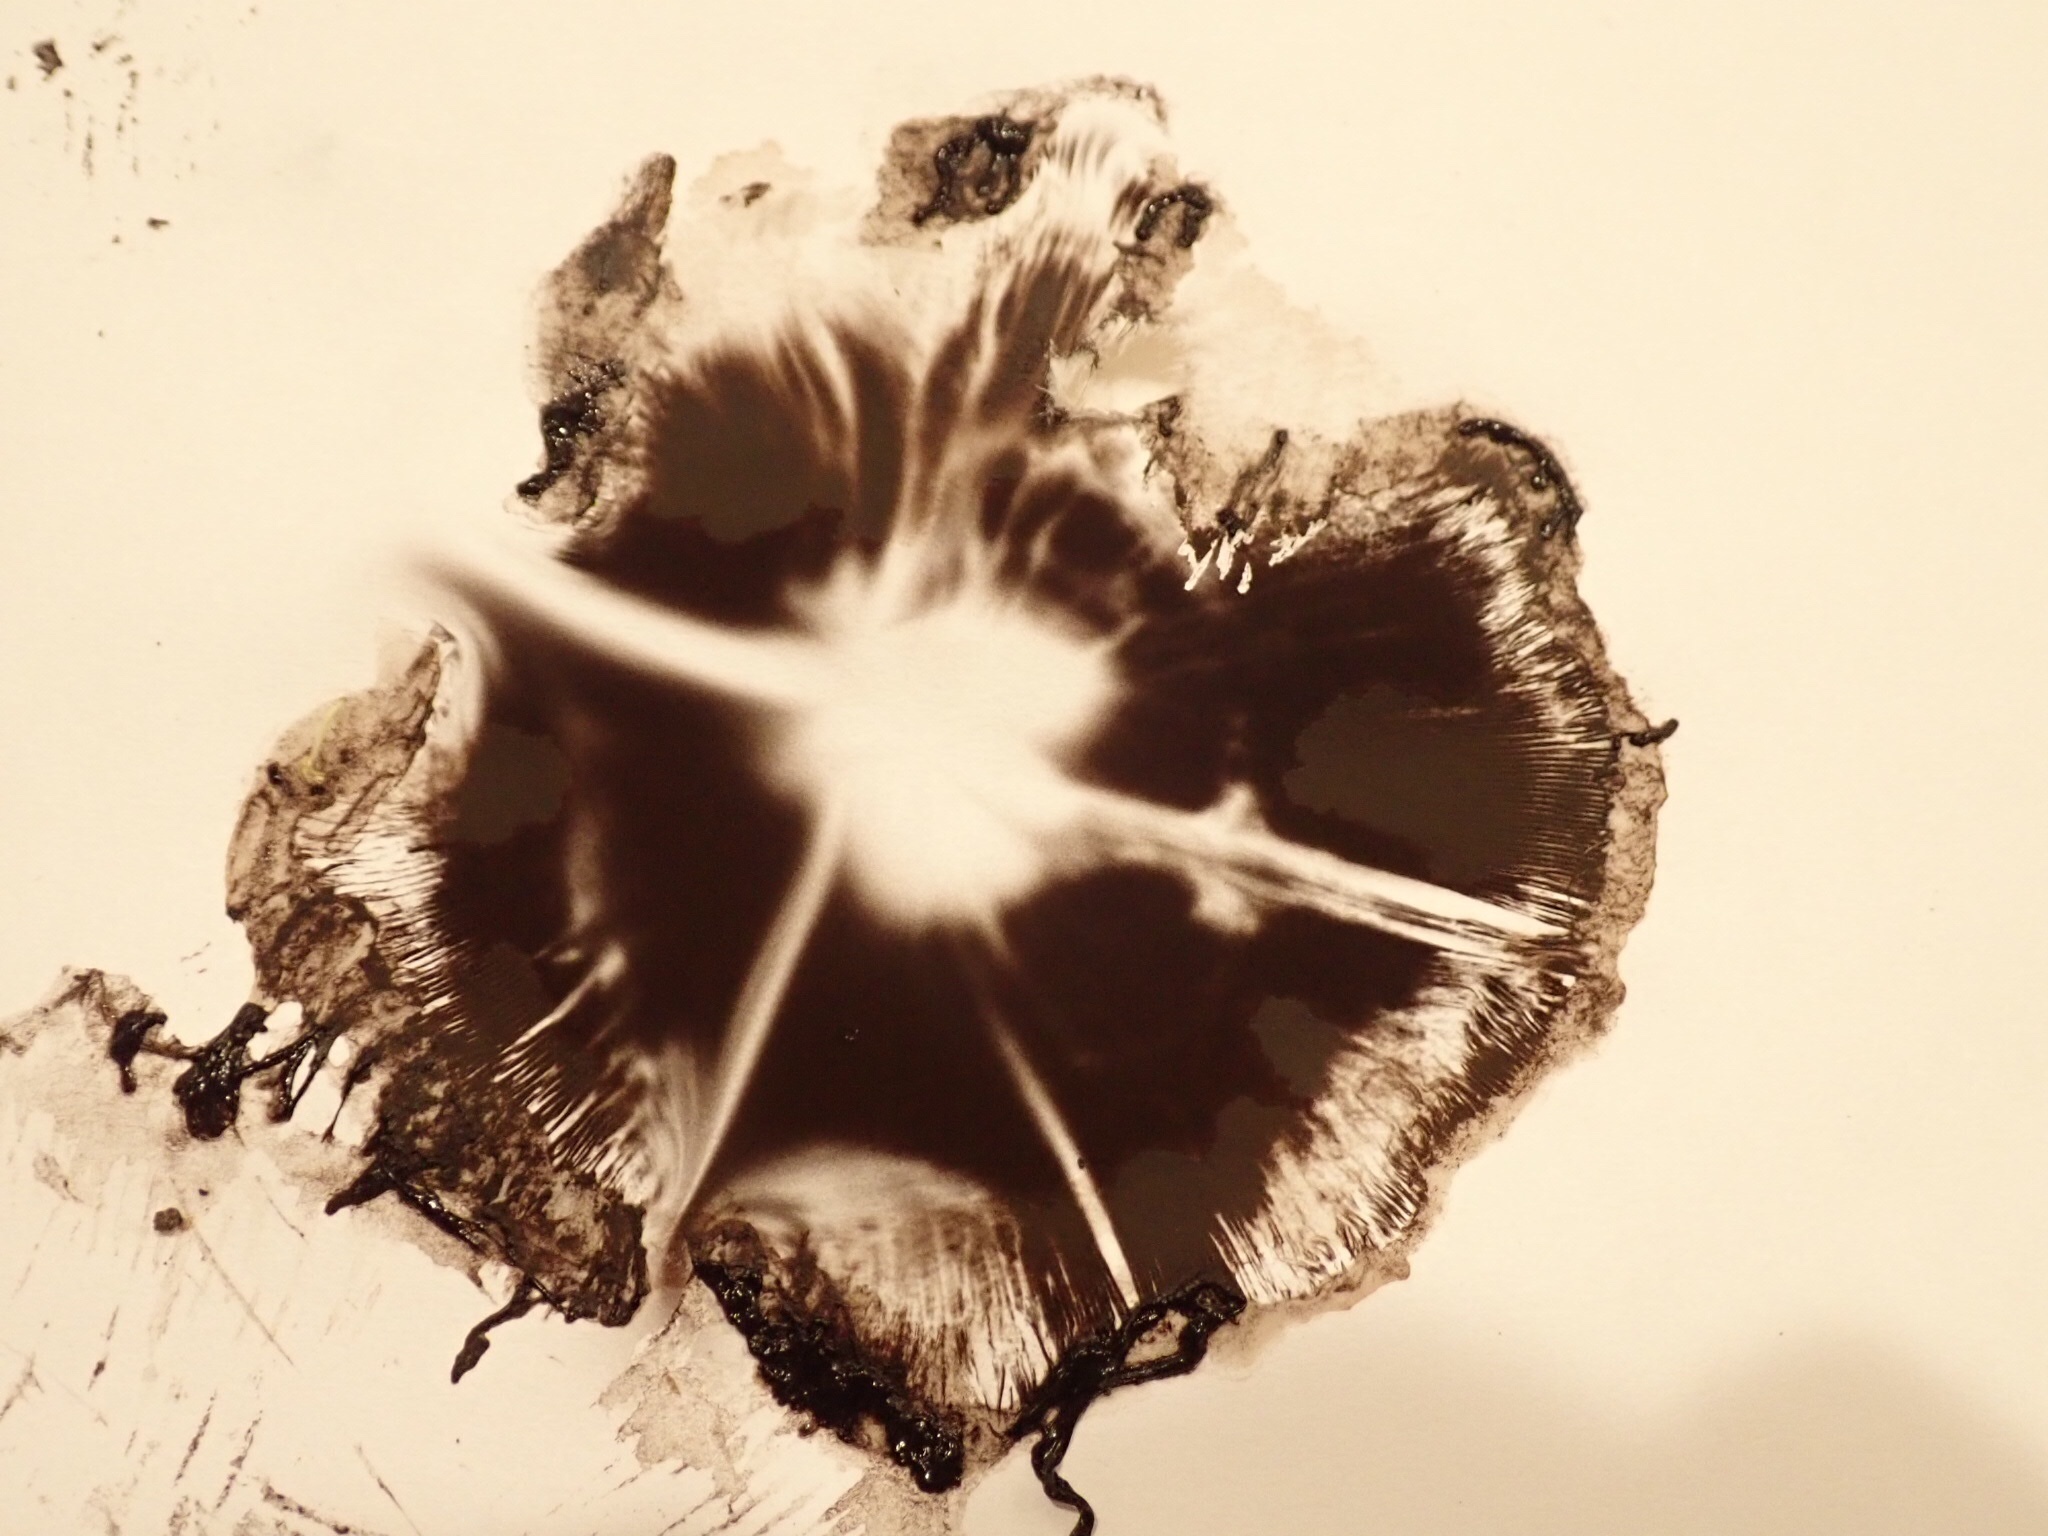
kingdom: Fungi
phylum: Basidiomycota
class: Agaricomycetes
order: Agaricales
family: Psathyrellaceae
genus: Coprinopsis
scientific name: Coprinopsis atramentaria
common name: Common ink-cap
